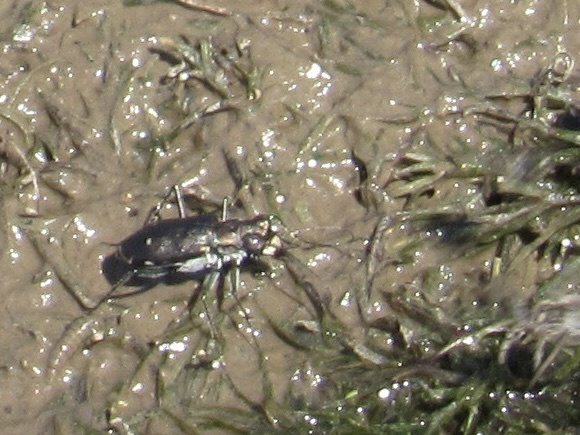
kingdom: Animalia
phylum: Arthropoda
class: Insecta
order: Coleoptera
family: Carabidae
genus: Cicindela
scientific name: Cicindela punctulata
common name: Punctured tiger beetle
